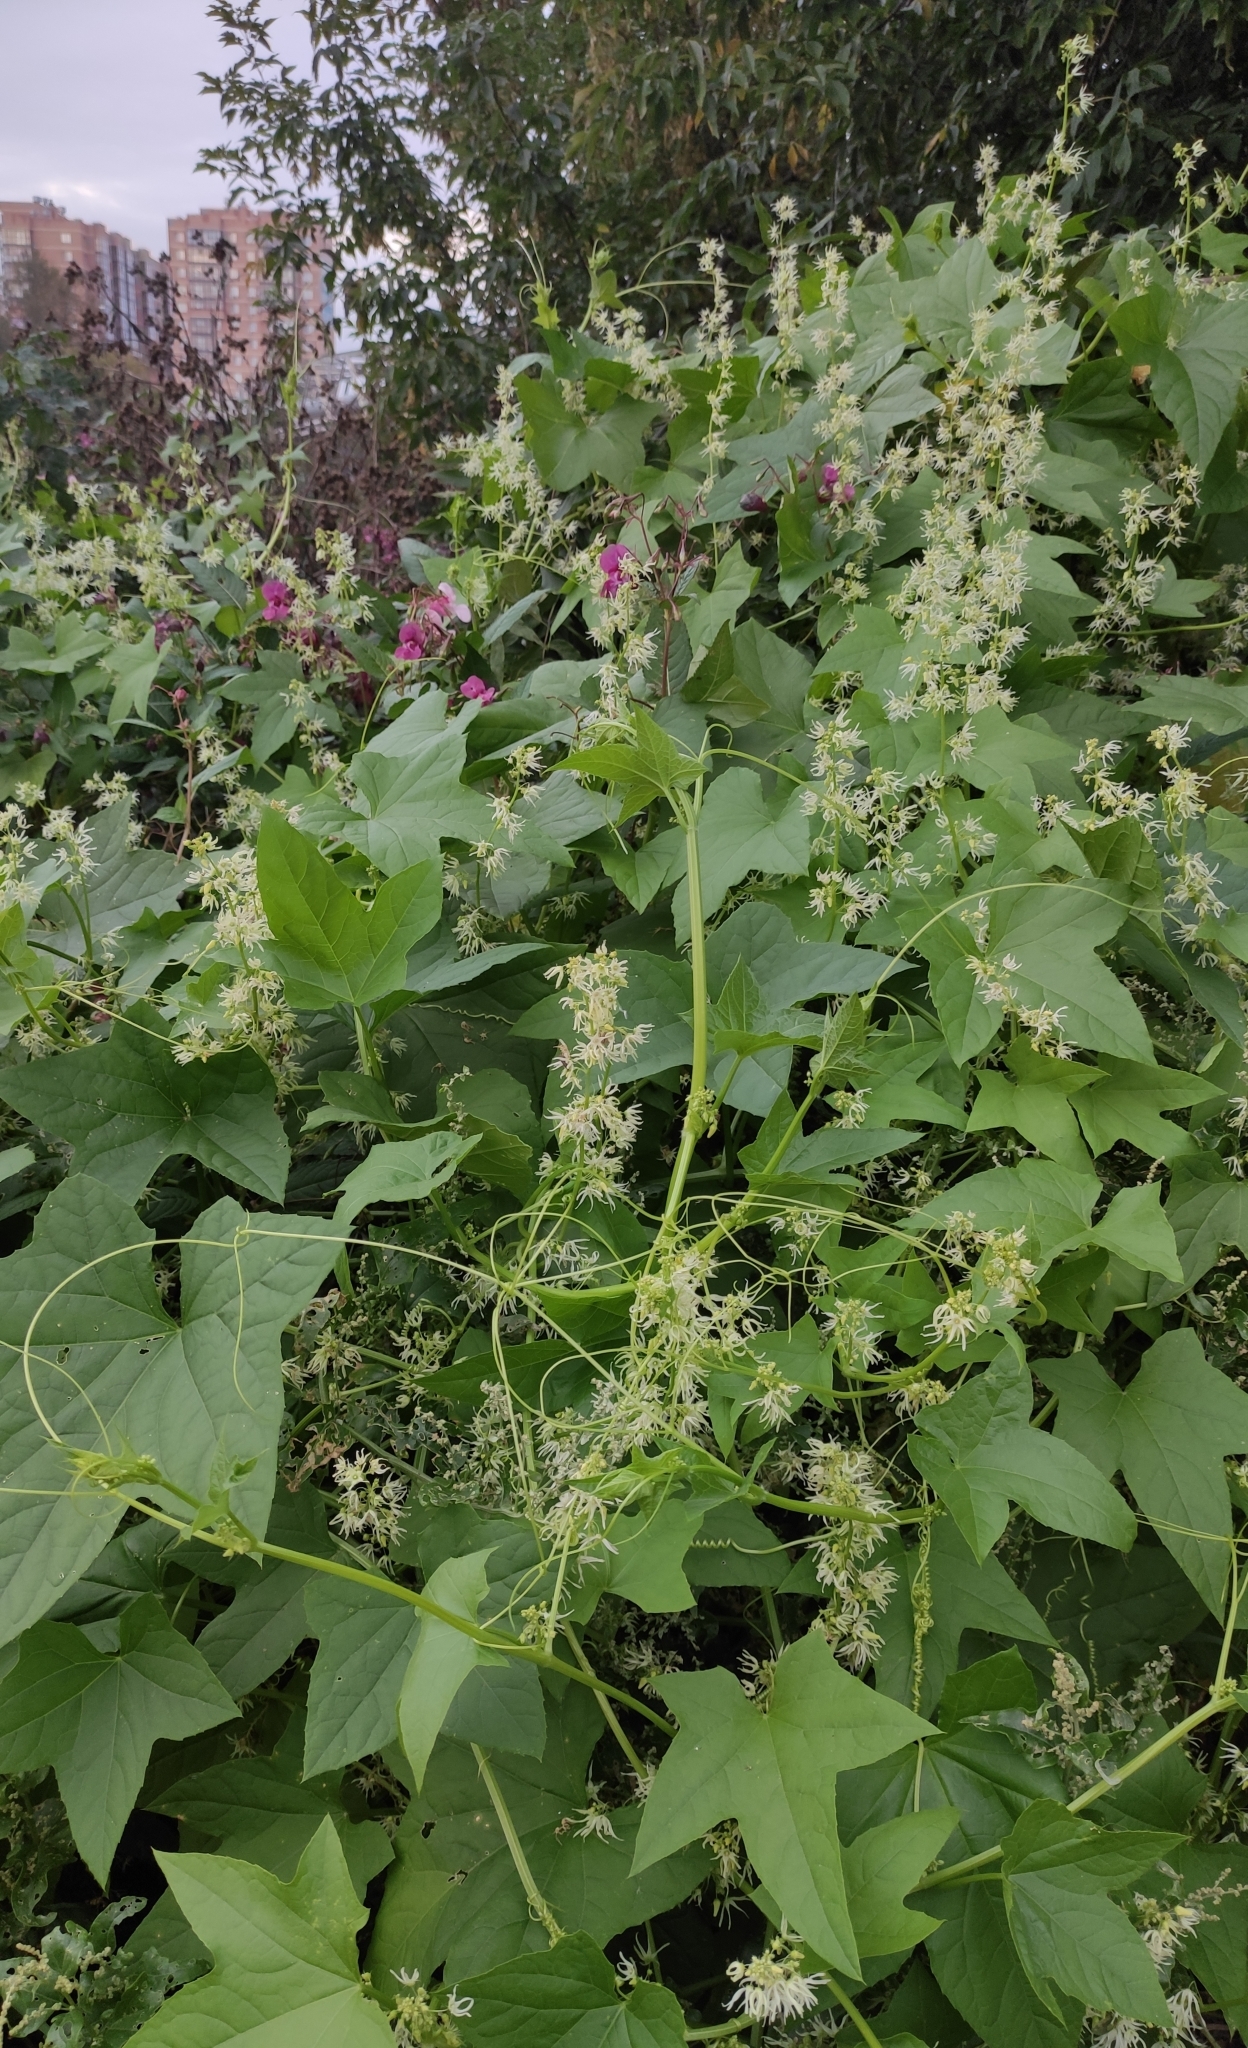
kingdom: Plantae
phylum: Tracheophyta
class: Magnoliopsida
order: Cucurbitales
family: Cucurbitaceae
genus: Echinocystis
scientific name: Echinocystis lobata
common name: Wild cucumber
